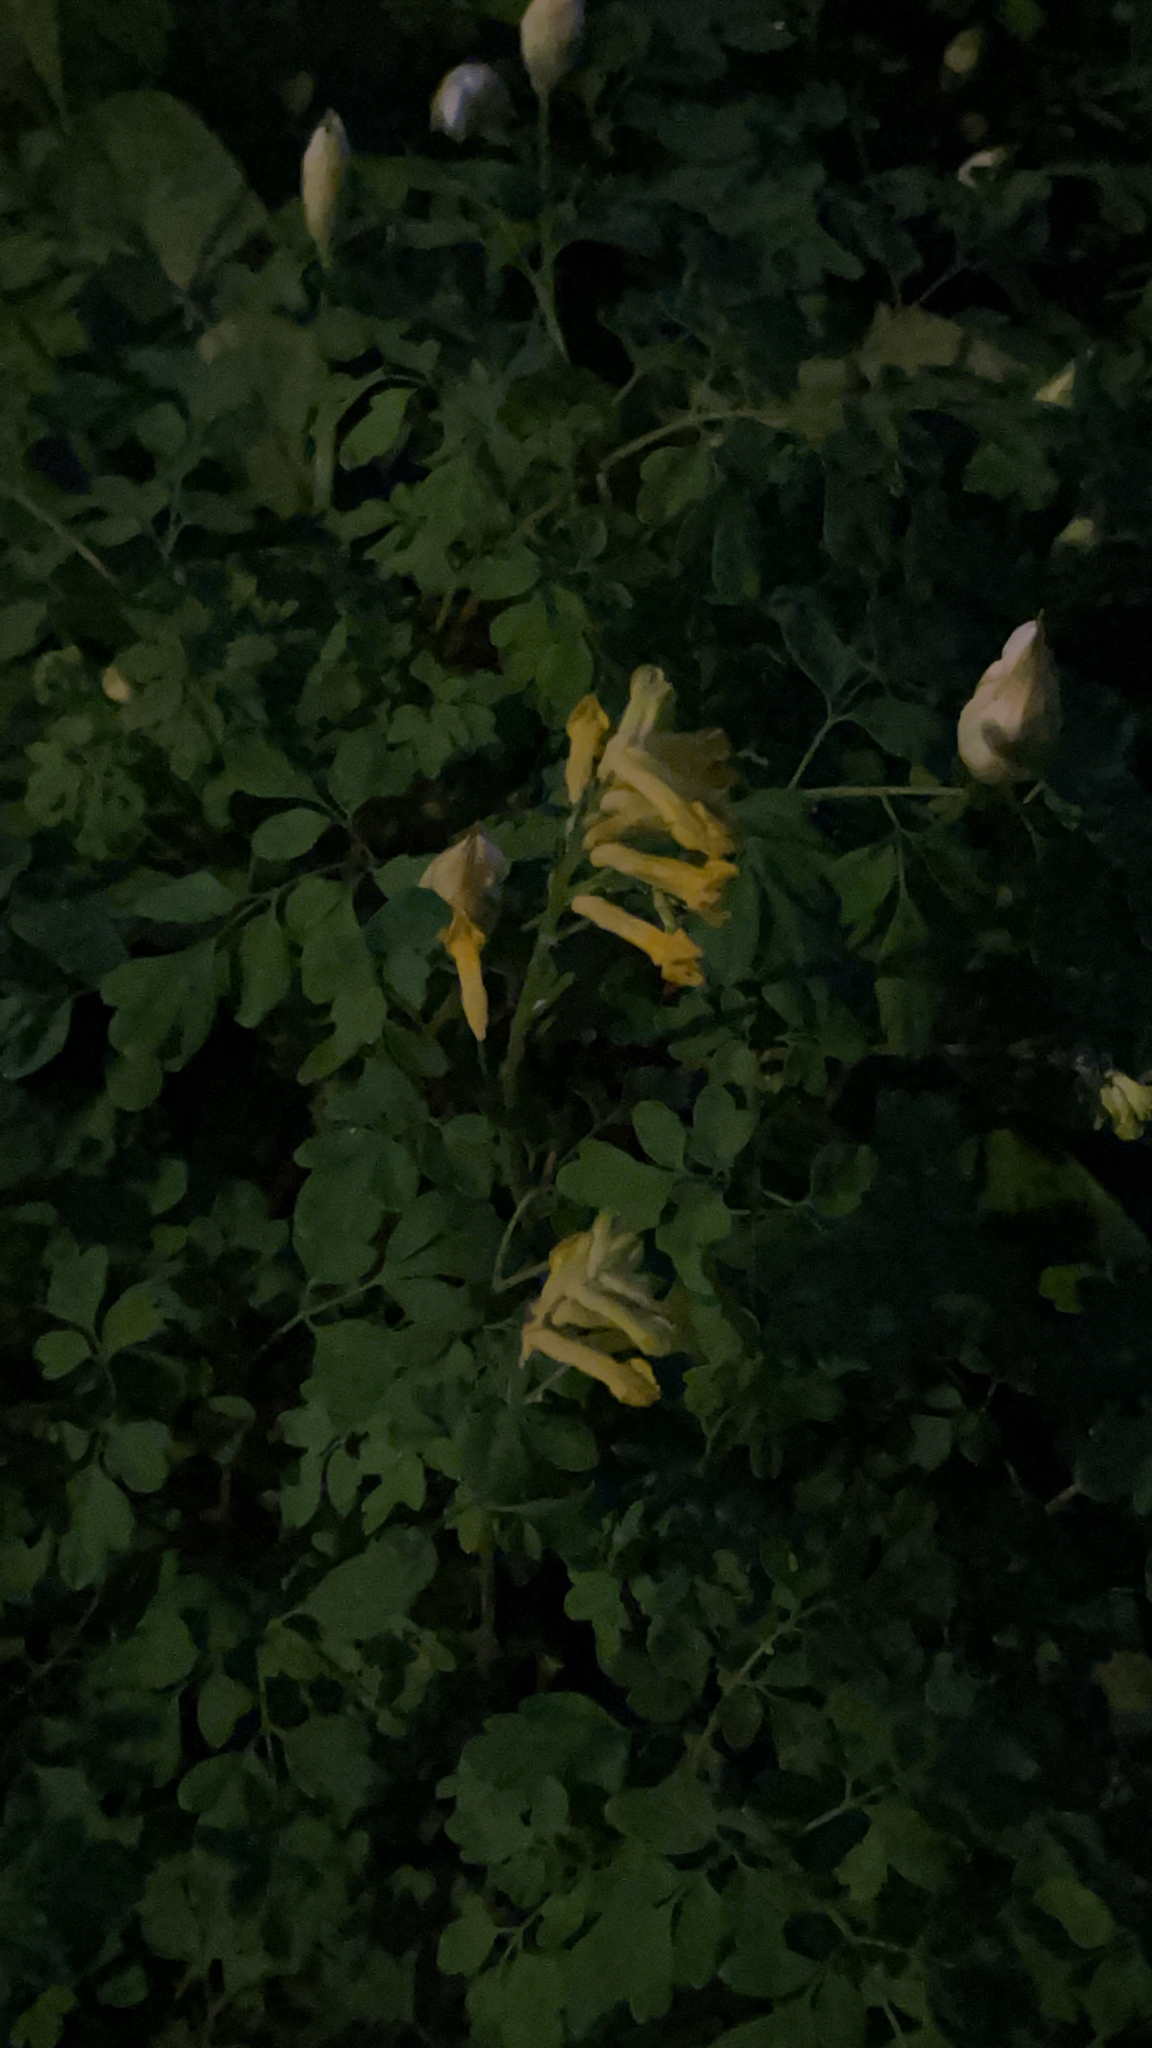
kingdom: Plantae
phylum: Tracheophyta
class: Magnoliopsida
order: Ranunculales
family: Papaveraceae
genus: Pseudofumaria
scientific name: Pseudofumaria lutea
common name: Yellow corydalis
